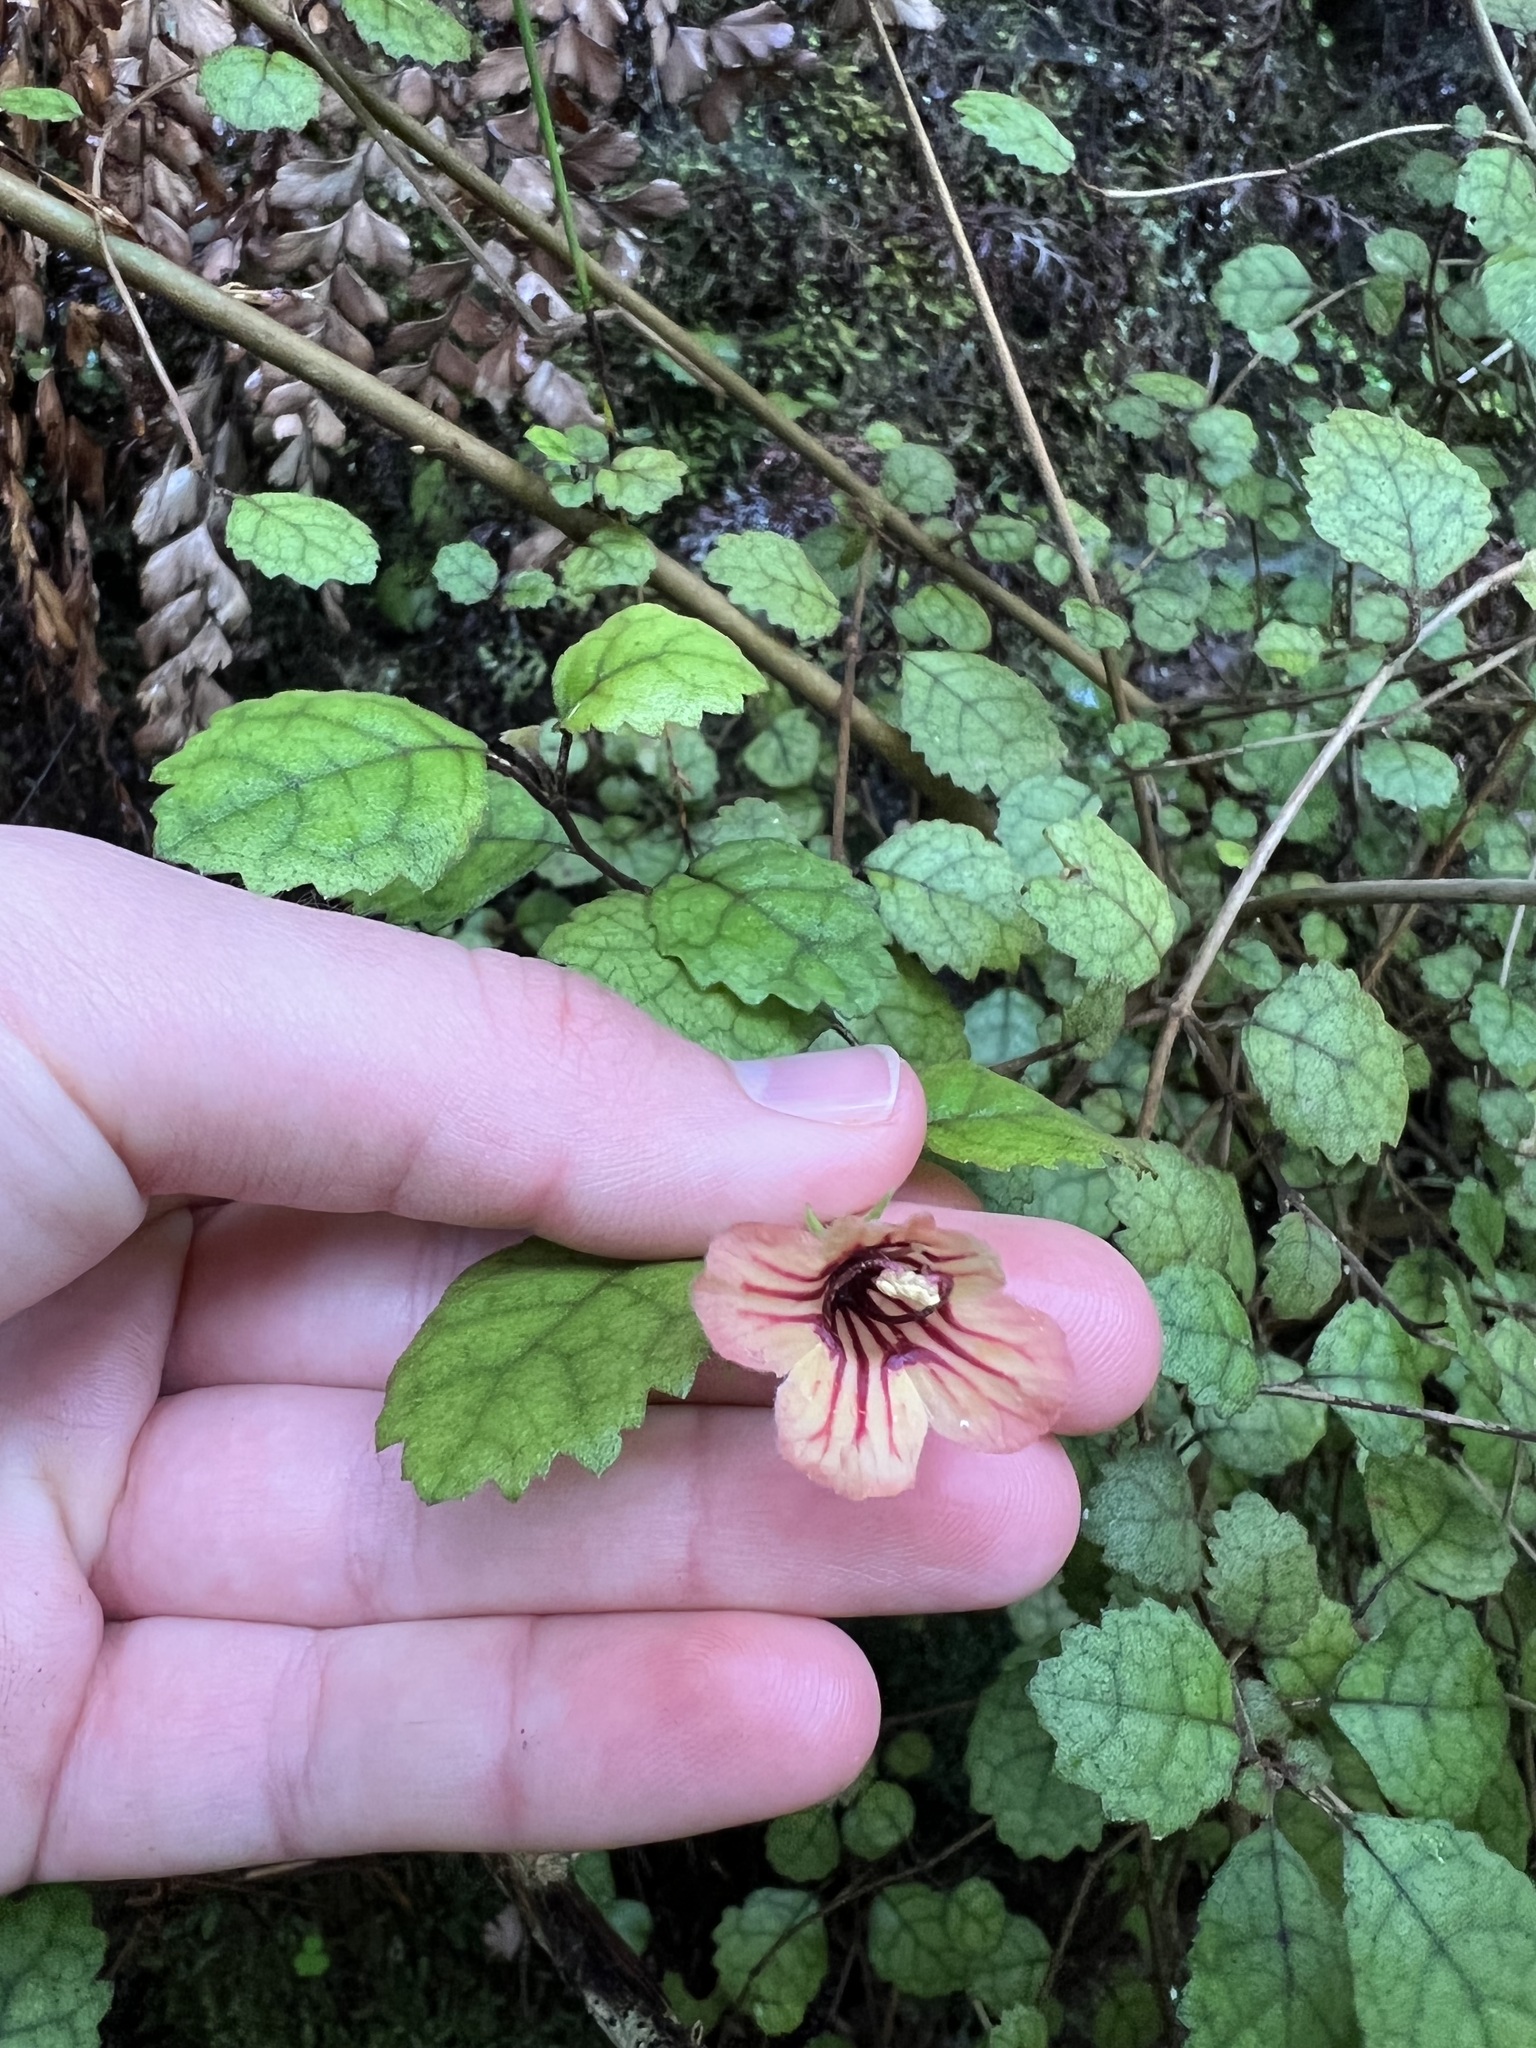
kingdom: Plantae
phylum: Tracheophyta
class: Magnoliopsida
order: Lamiales
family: Gesneriaceae
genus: Rhabdothamnus
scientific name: Rhabdothamnus solandri
